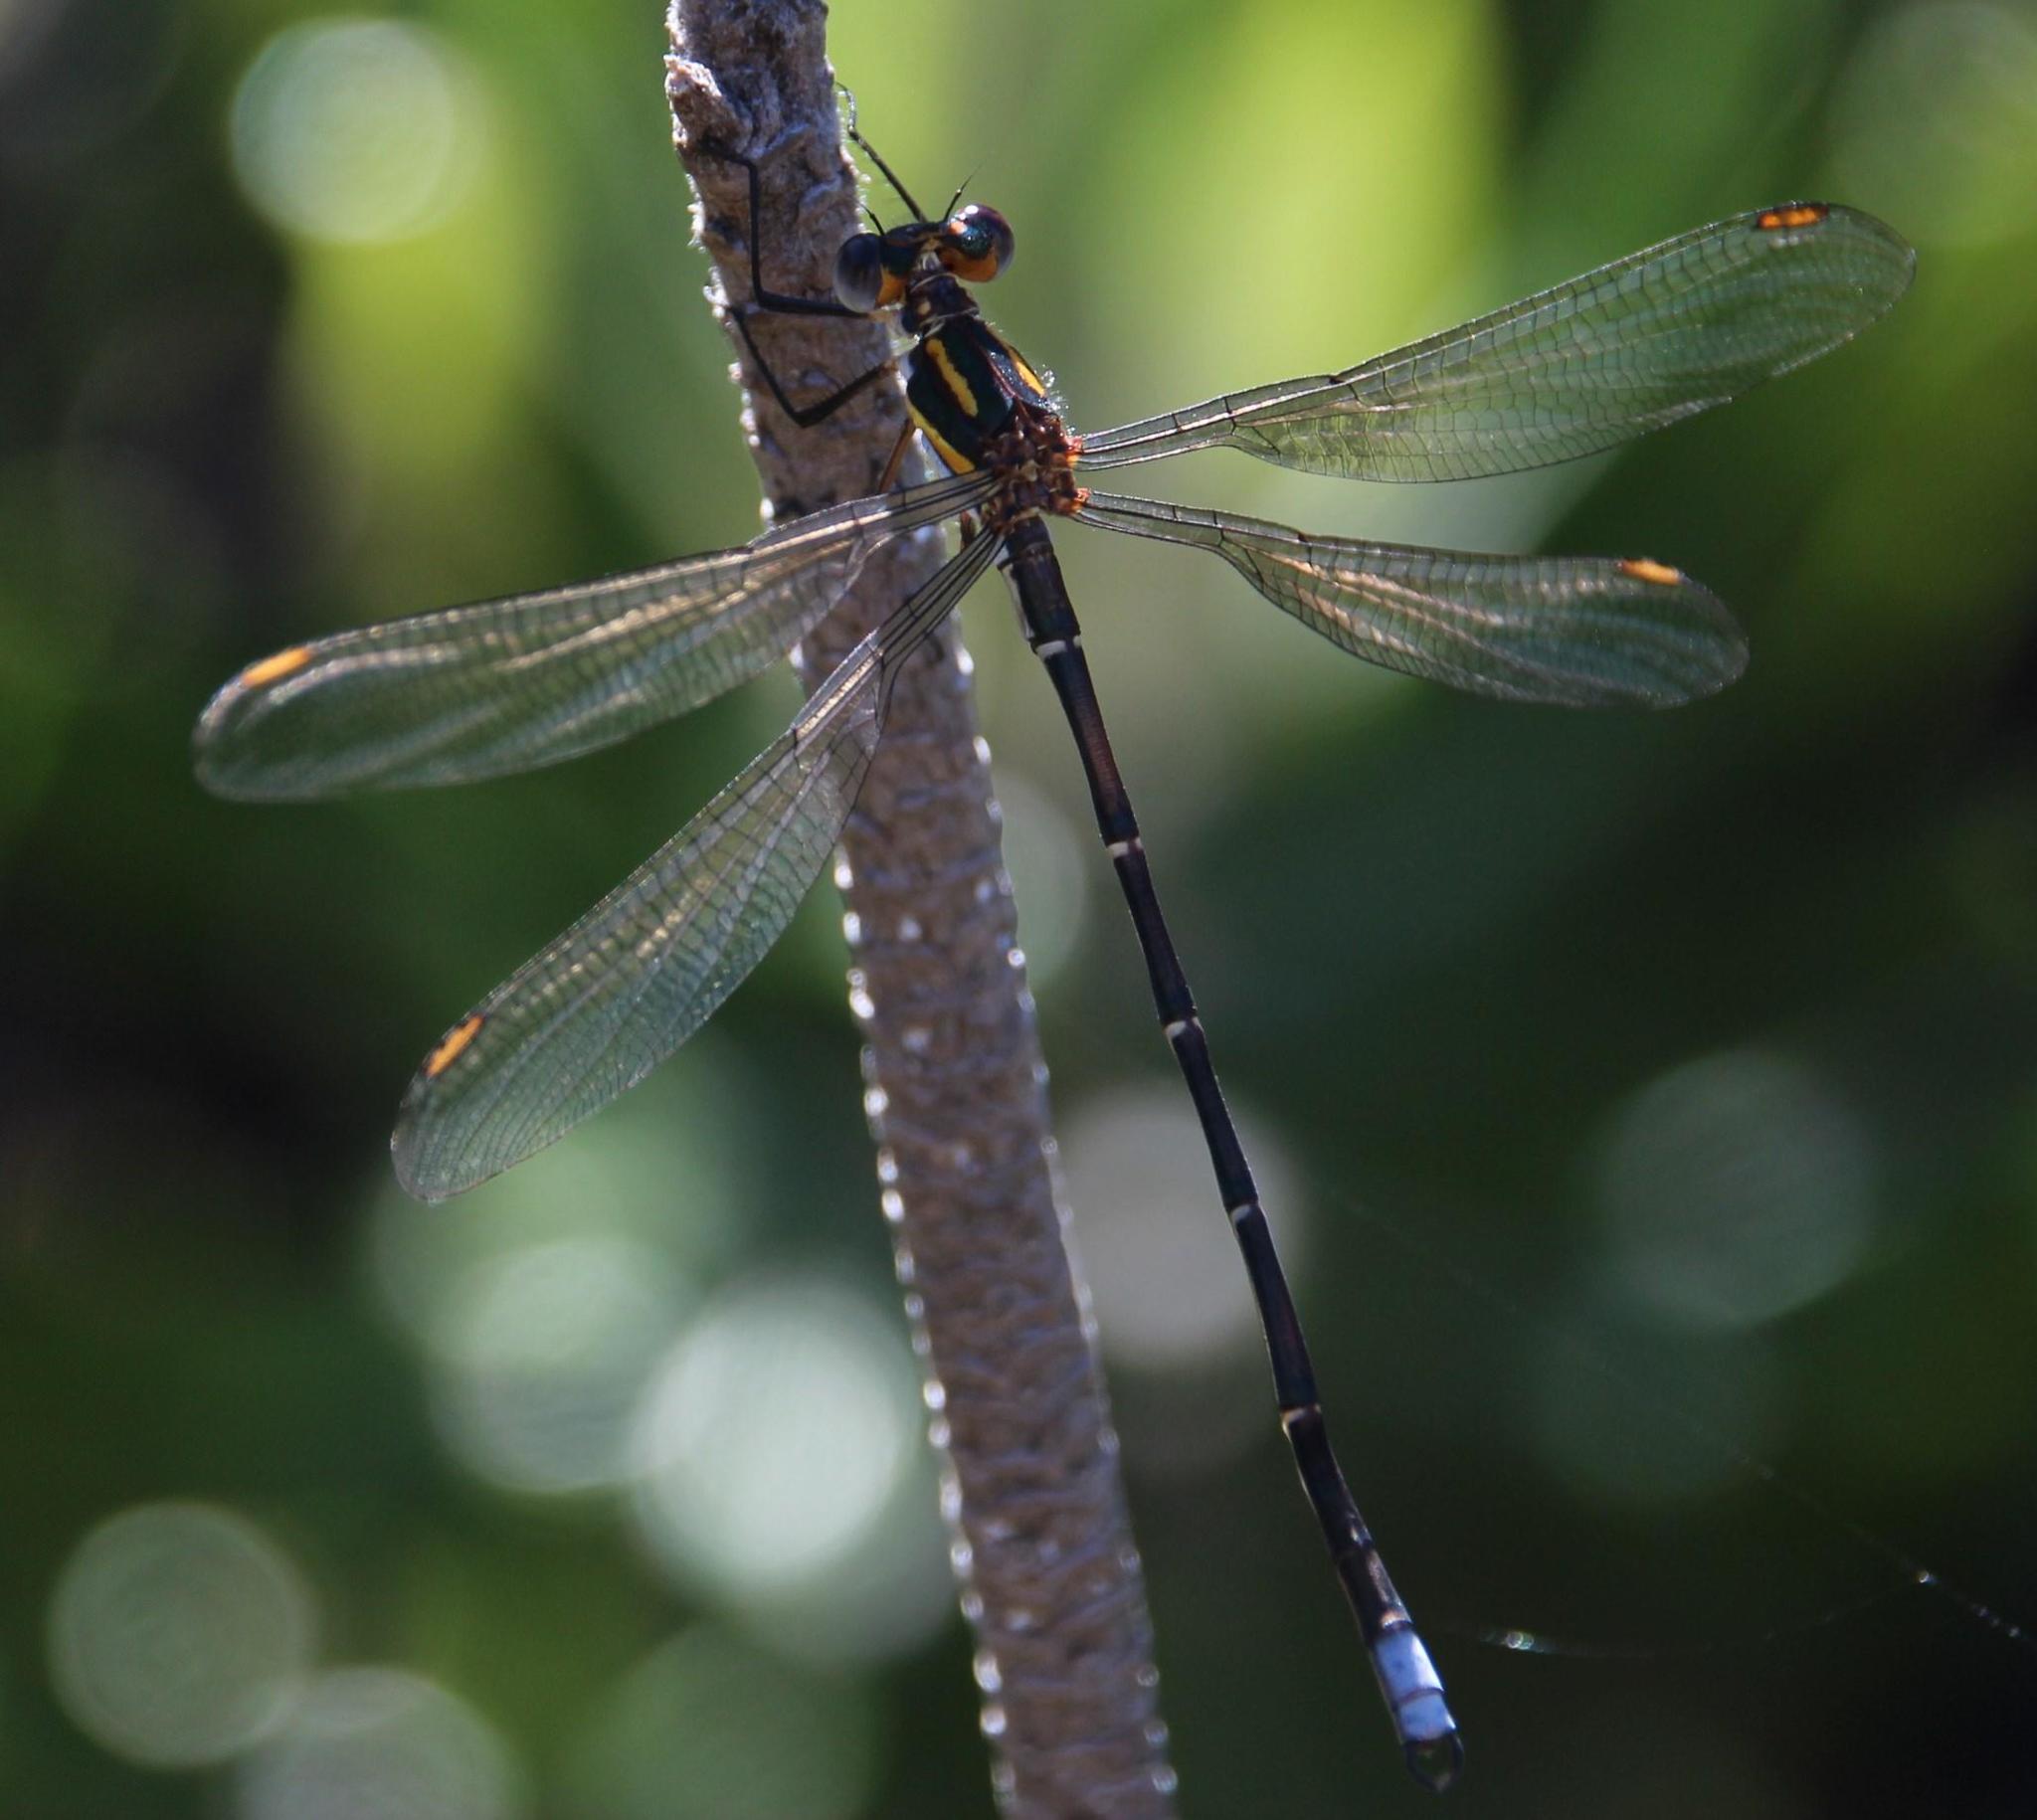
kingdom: Animalia
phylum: Arthropoda
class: Insecta
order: Odonata
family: Synlestidae
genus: Chlorolestes
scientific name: Chlorolestes conspicuus
